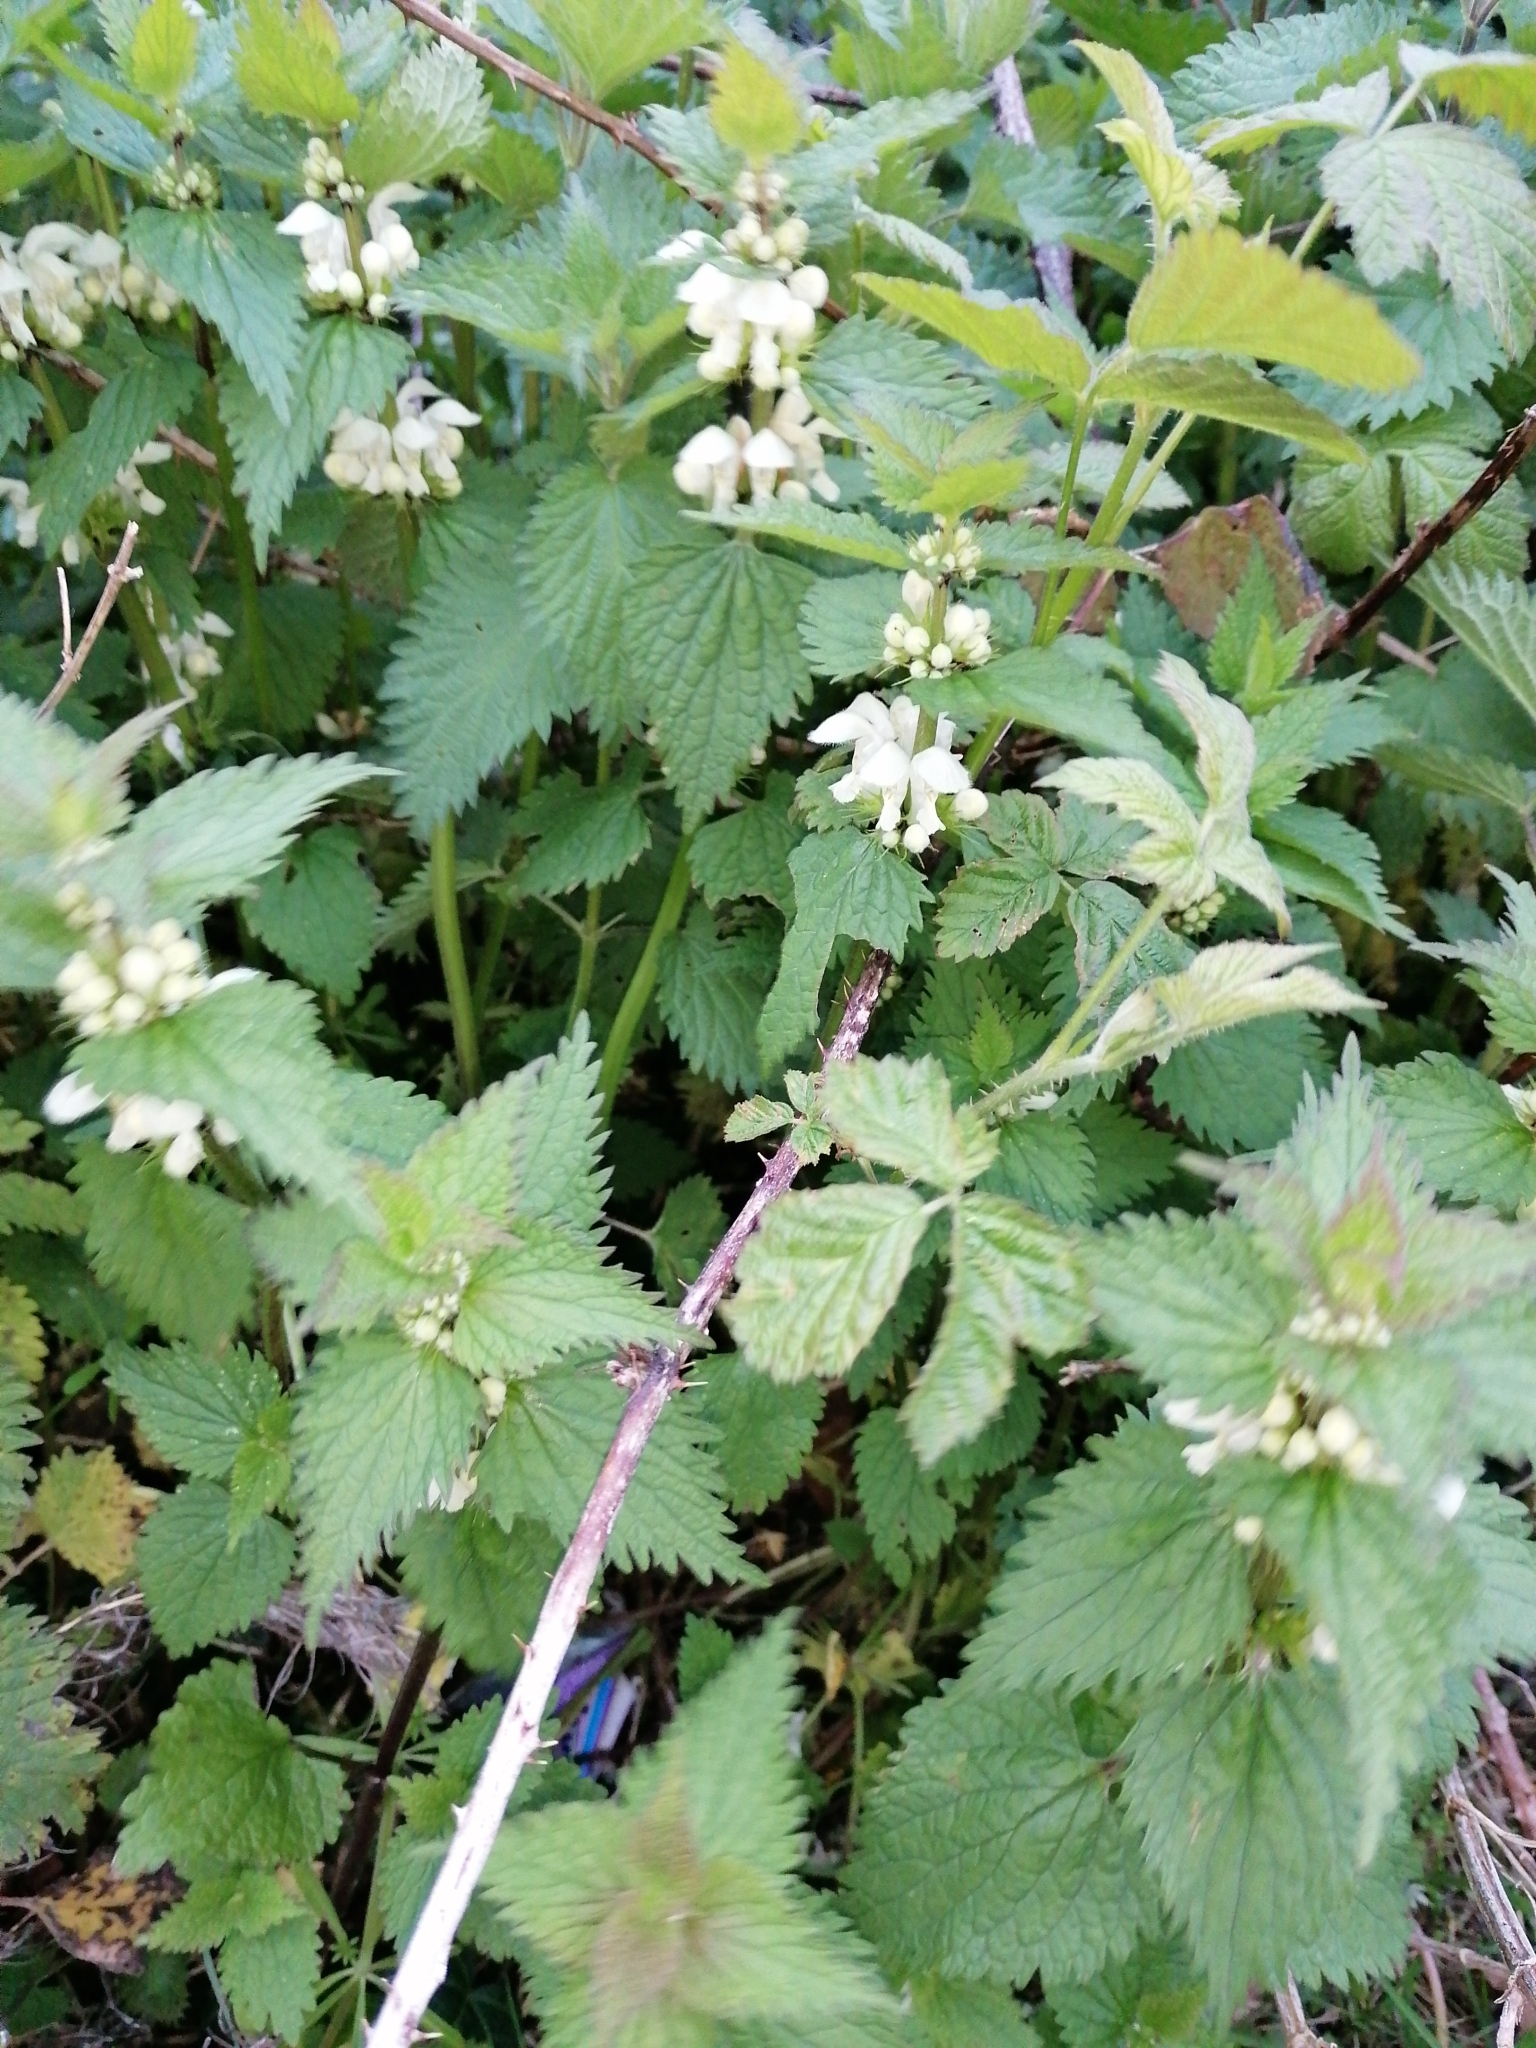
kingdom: Plantae
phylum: Tracheophyta
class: Magnoliopsida
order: Lamiales
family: Lamiaceae
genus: Lamium
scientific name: Lamium album
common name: White dead-nettle
